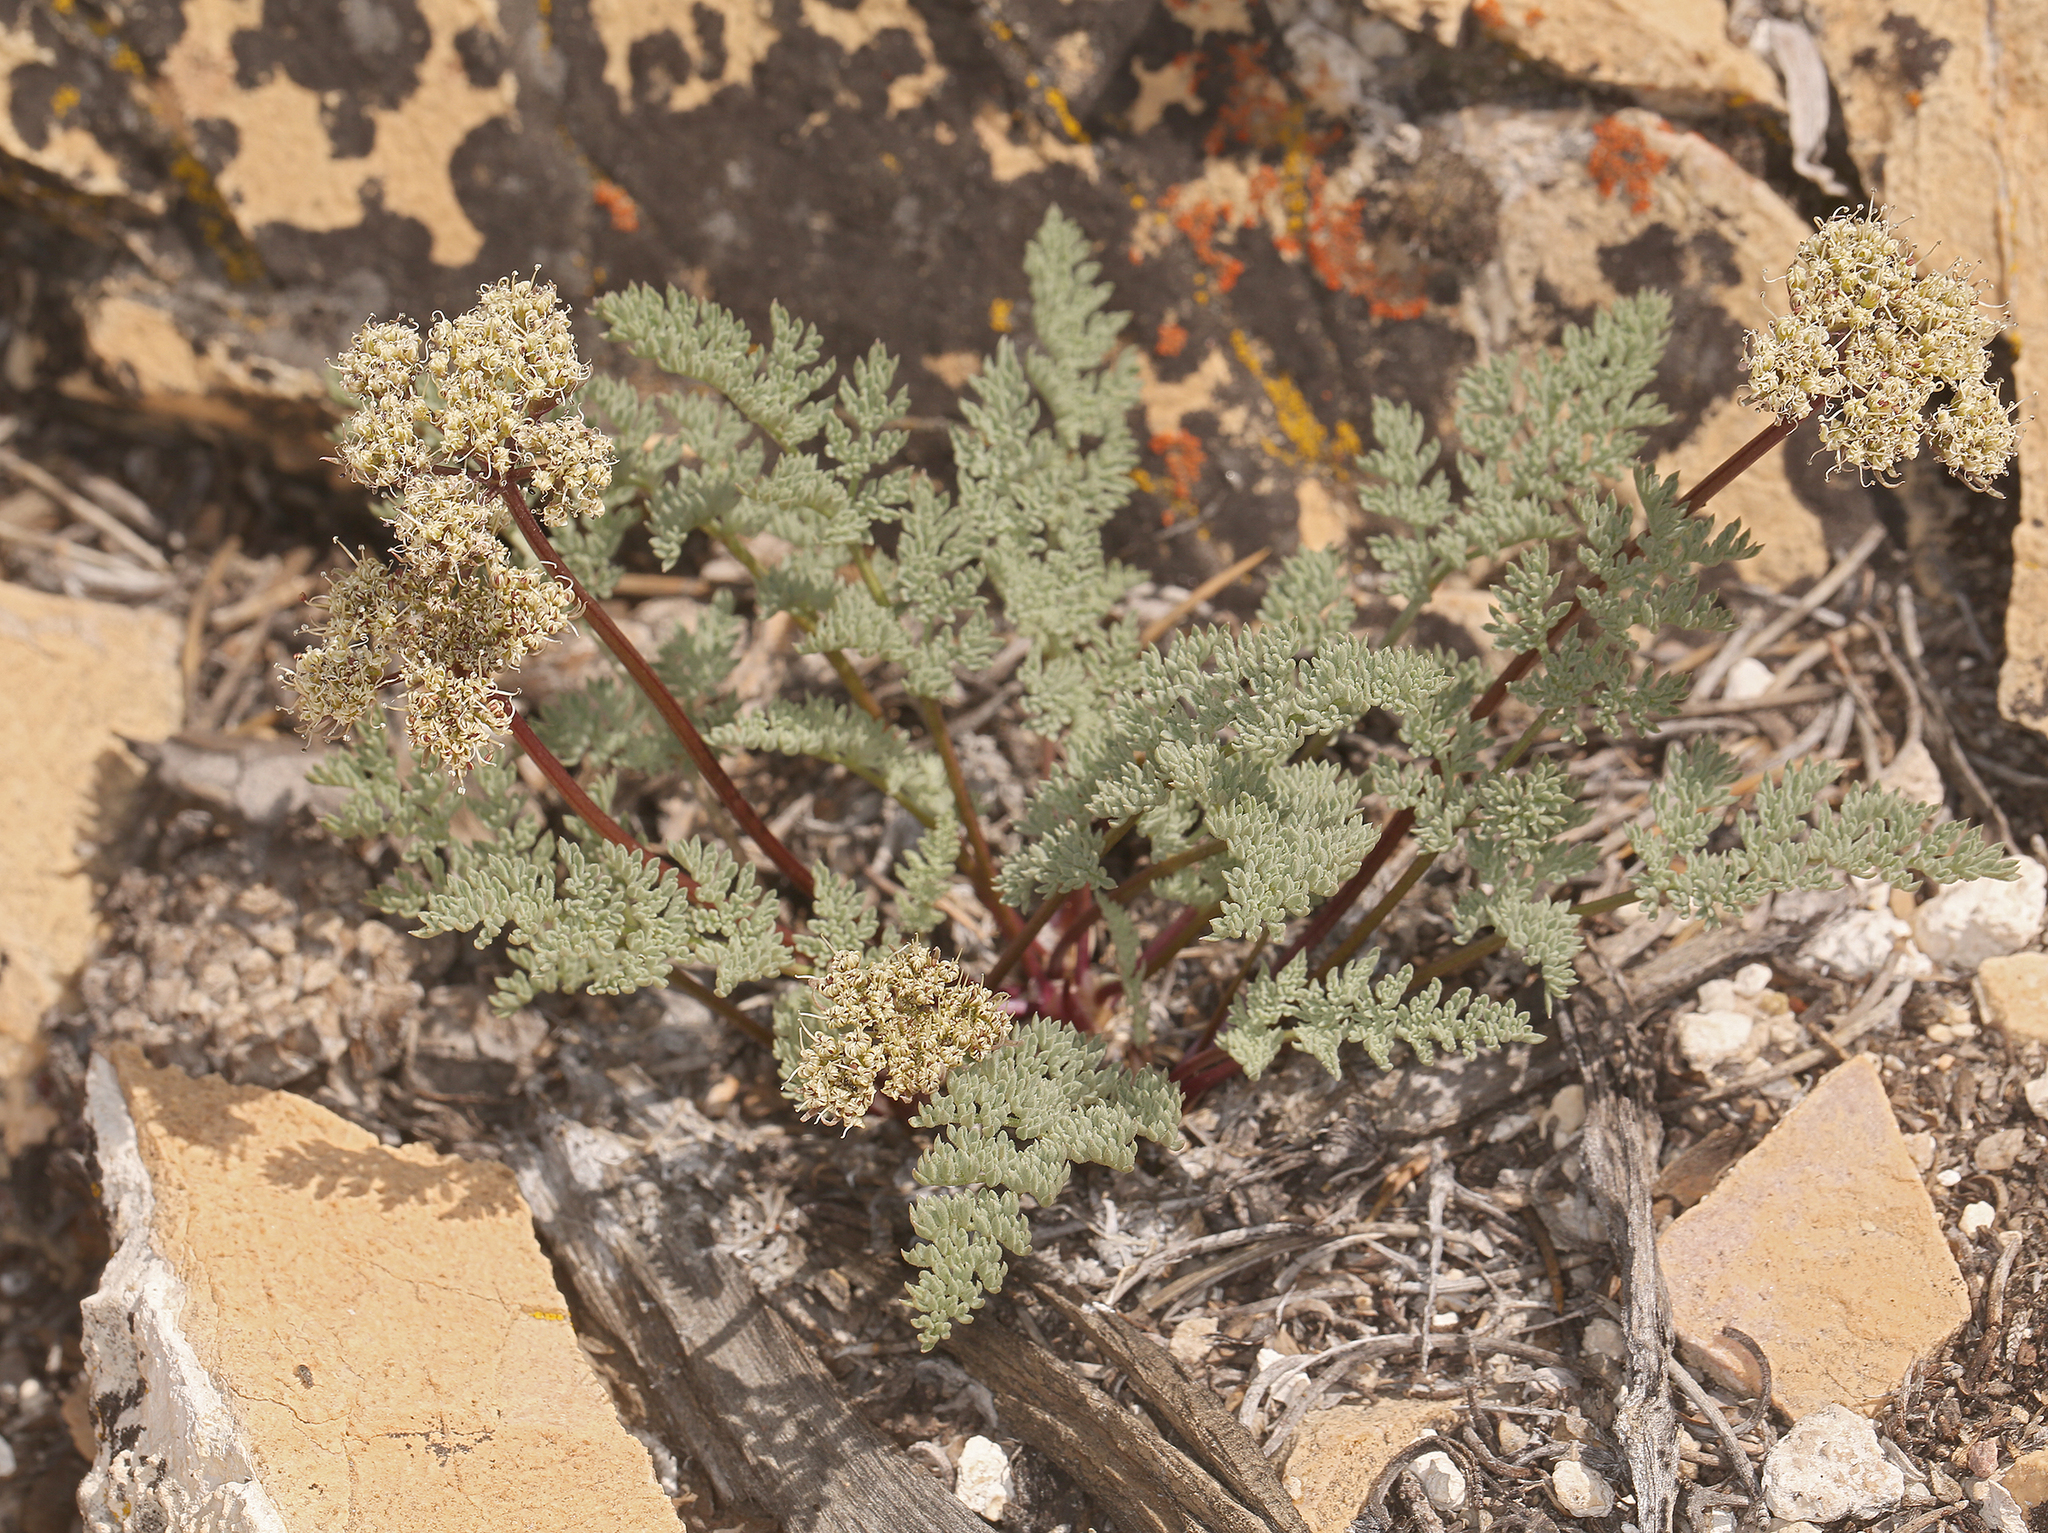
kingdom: Plantae
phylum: Tracheophyta
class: Magnoliopsida
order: Apiales
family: Apiaceae
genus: Aulospermum
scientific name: Aulospermum aboriginum
